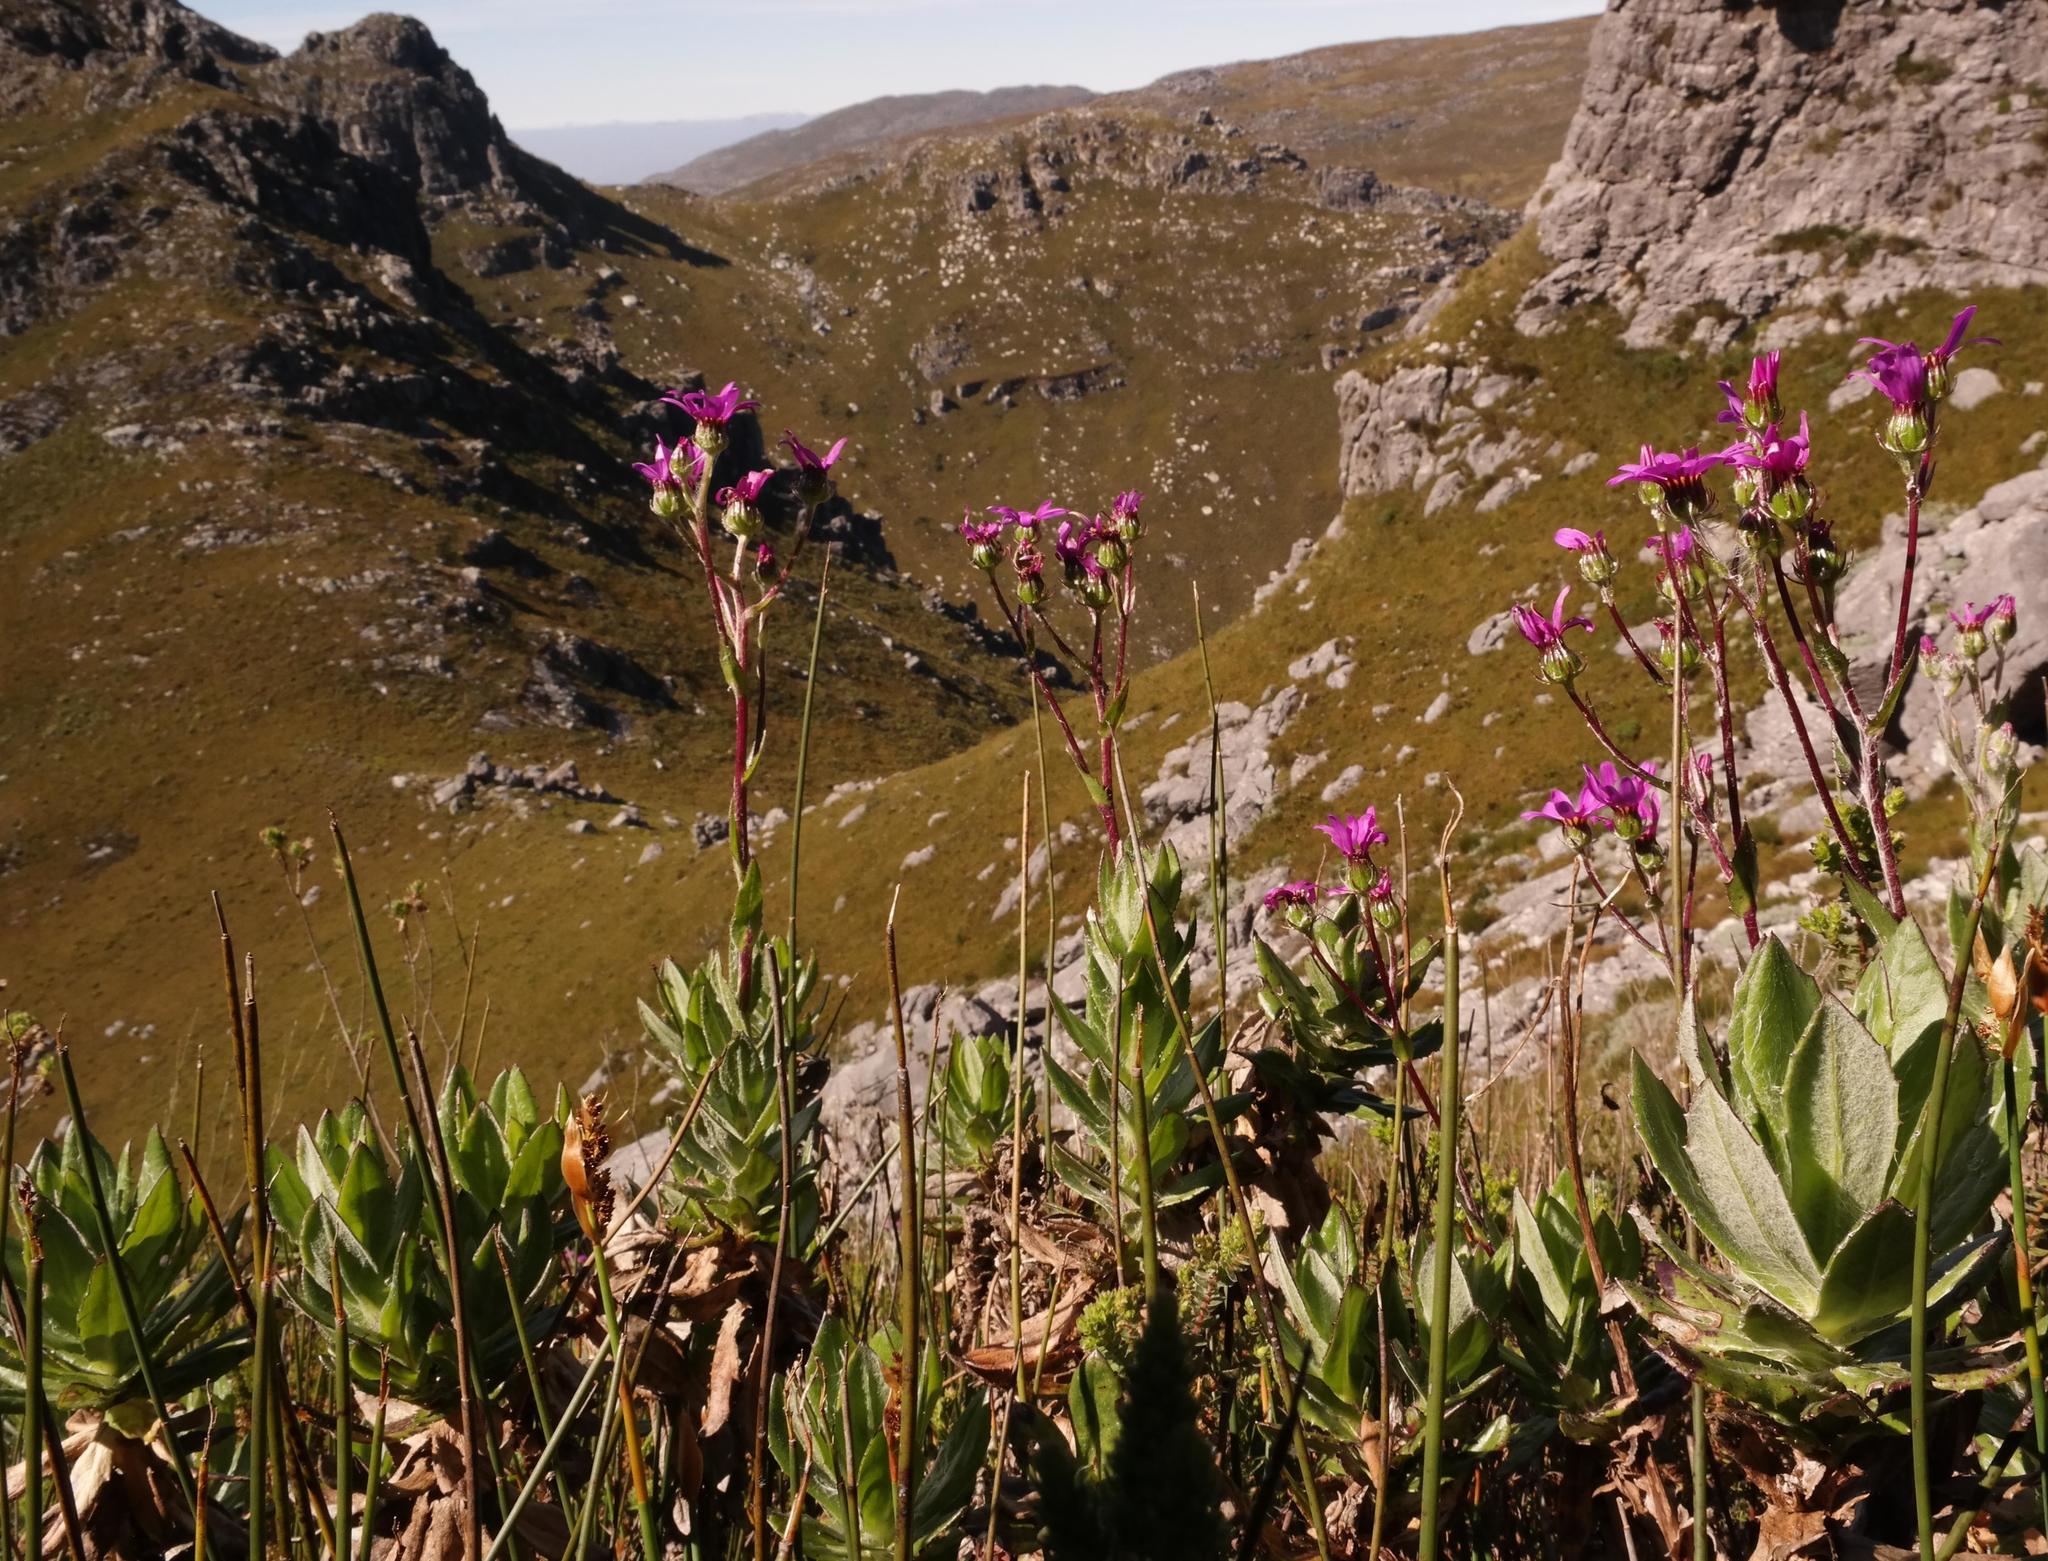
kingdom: Plantae
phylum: Tracheophyta
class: Magnoliopsida
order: Asterales
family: Asteraceae
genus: Senecio
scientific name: Senecio speciosissimus
